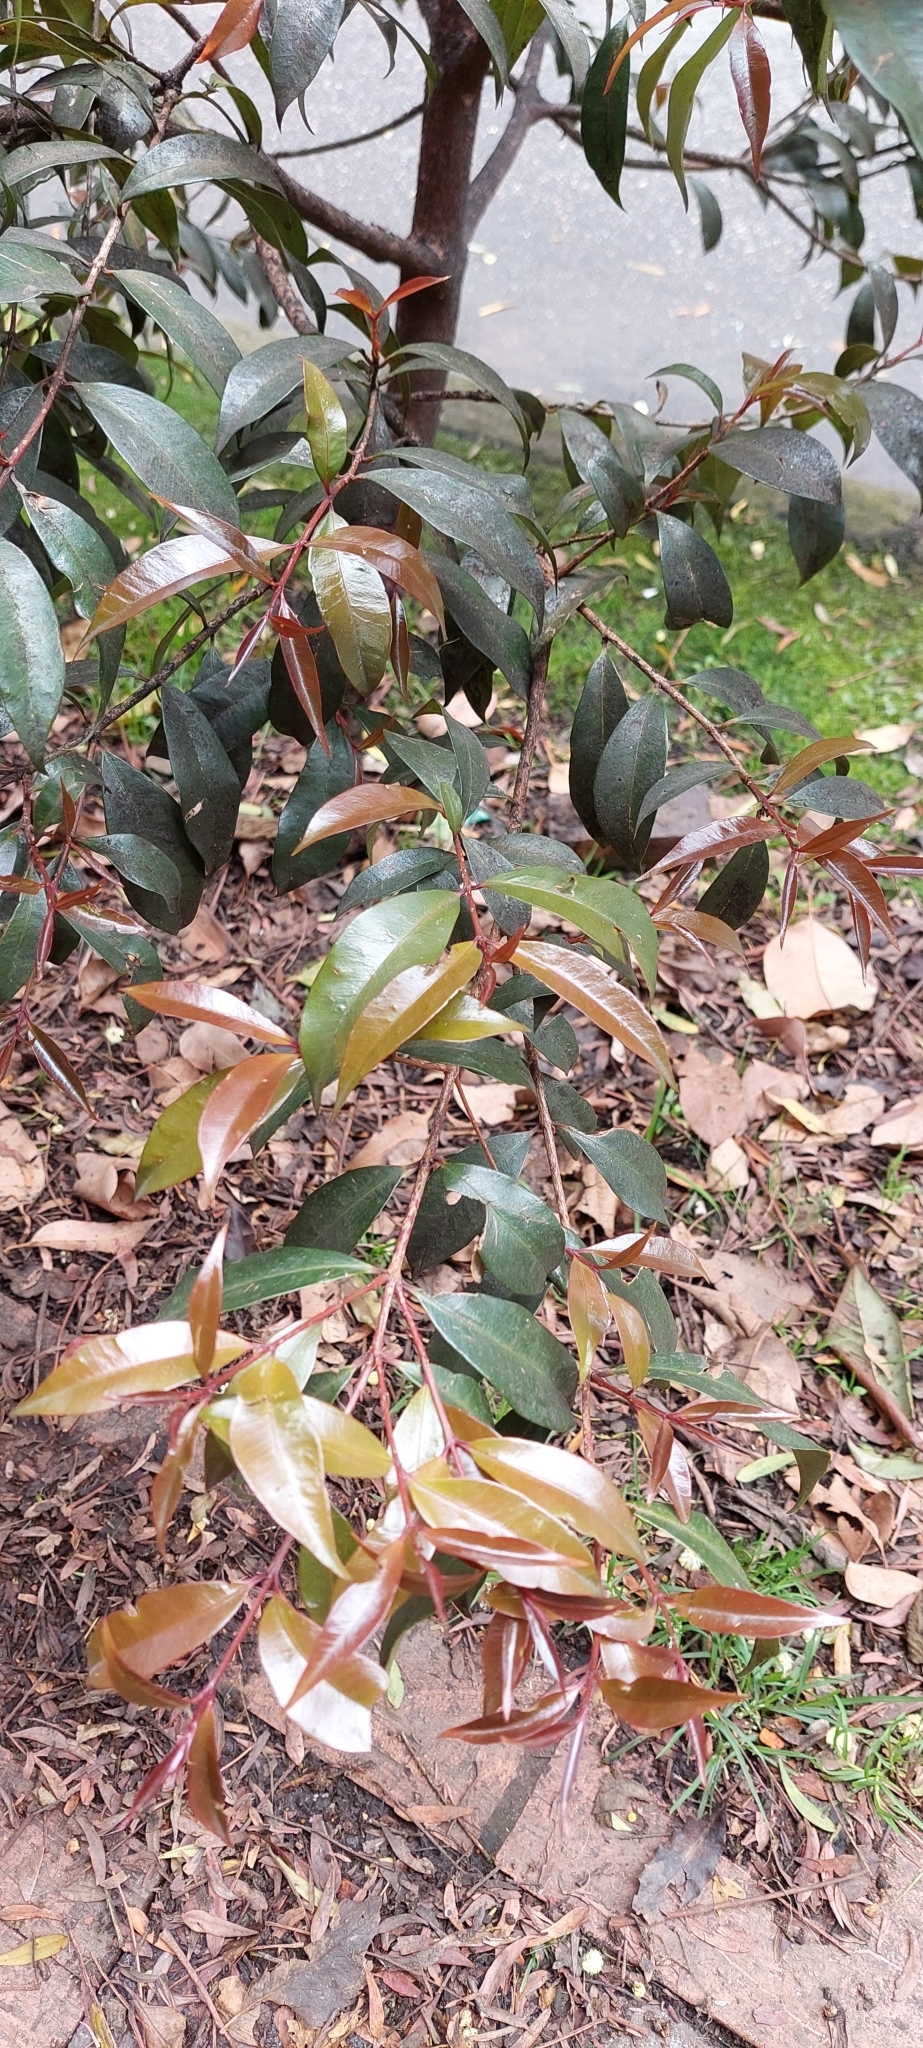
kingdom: Plantae
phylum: Tracheophyta
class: Magnoliopsida
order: Myrtales
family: Myrtaceae
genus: Syzygium
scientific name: Syzygium paniculatum
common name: Magenta lilly-pilly
